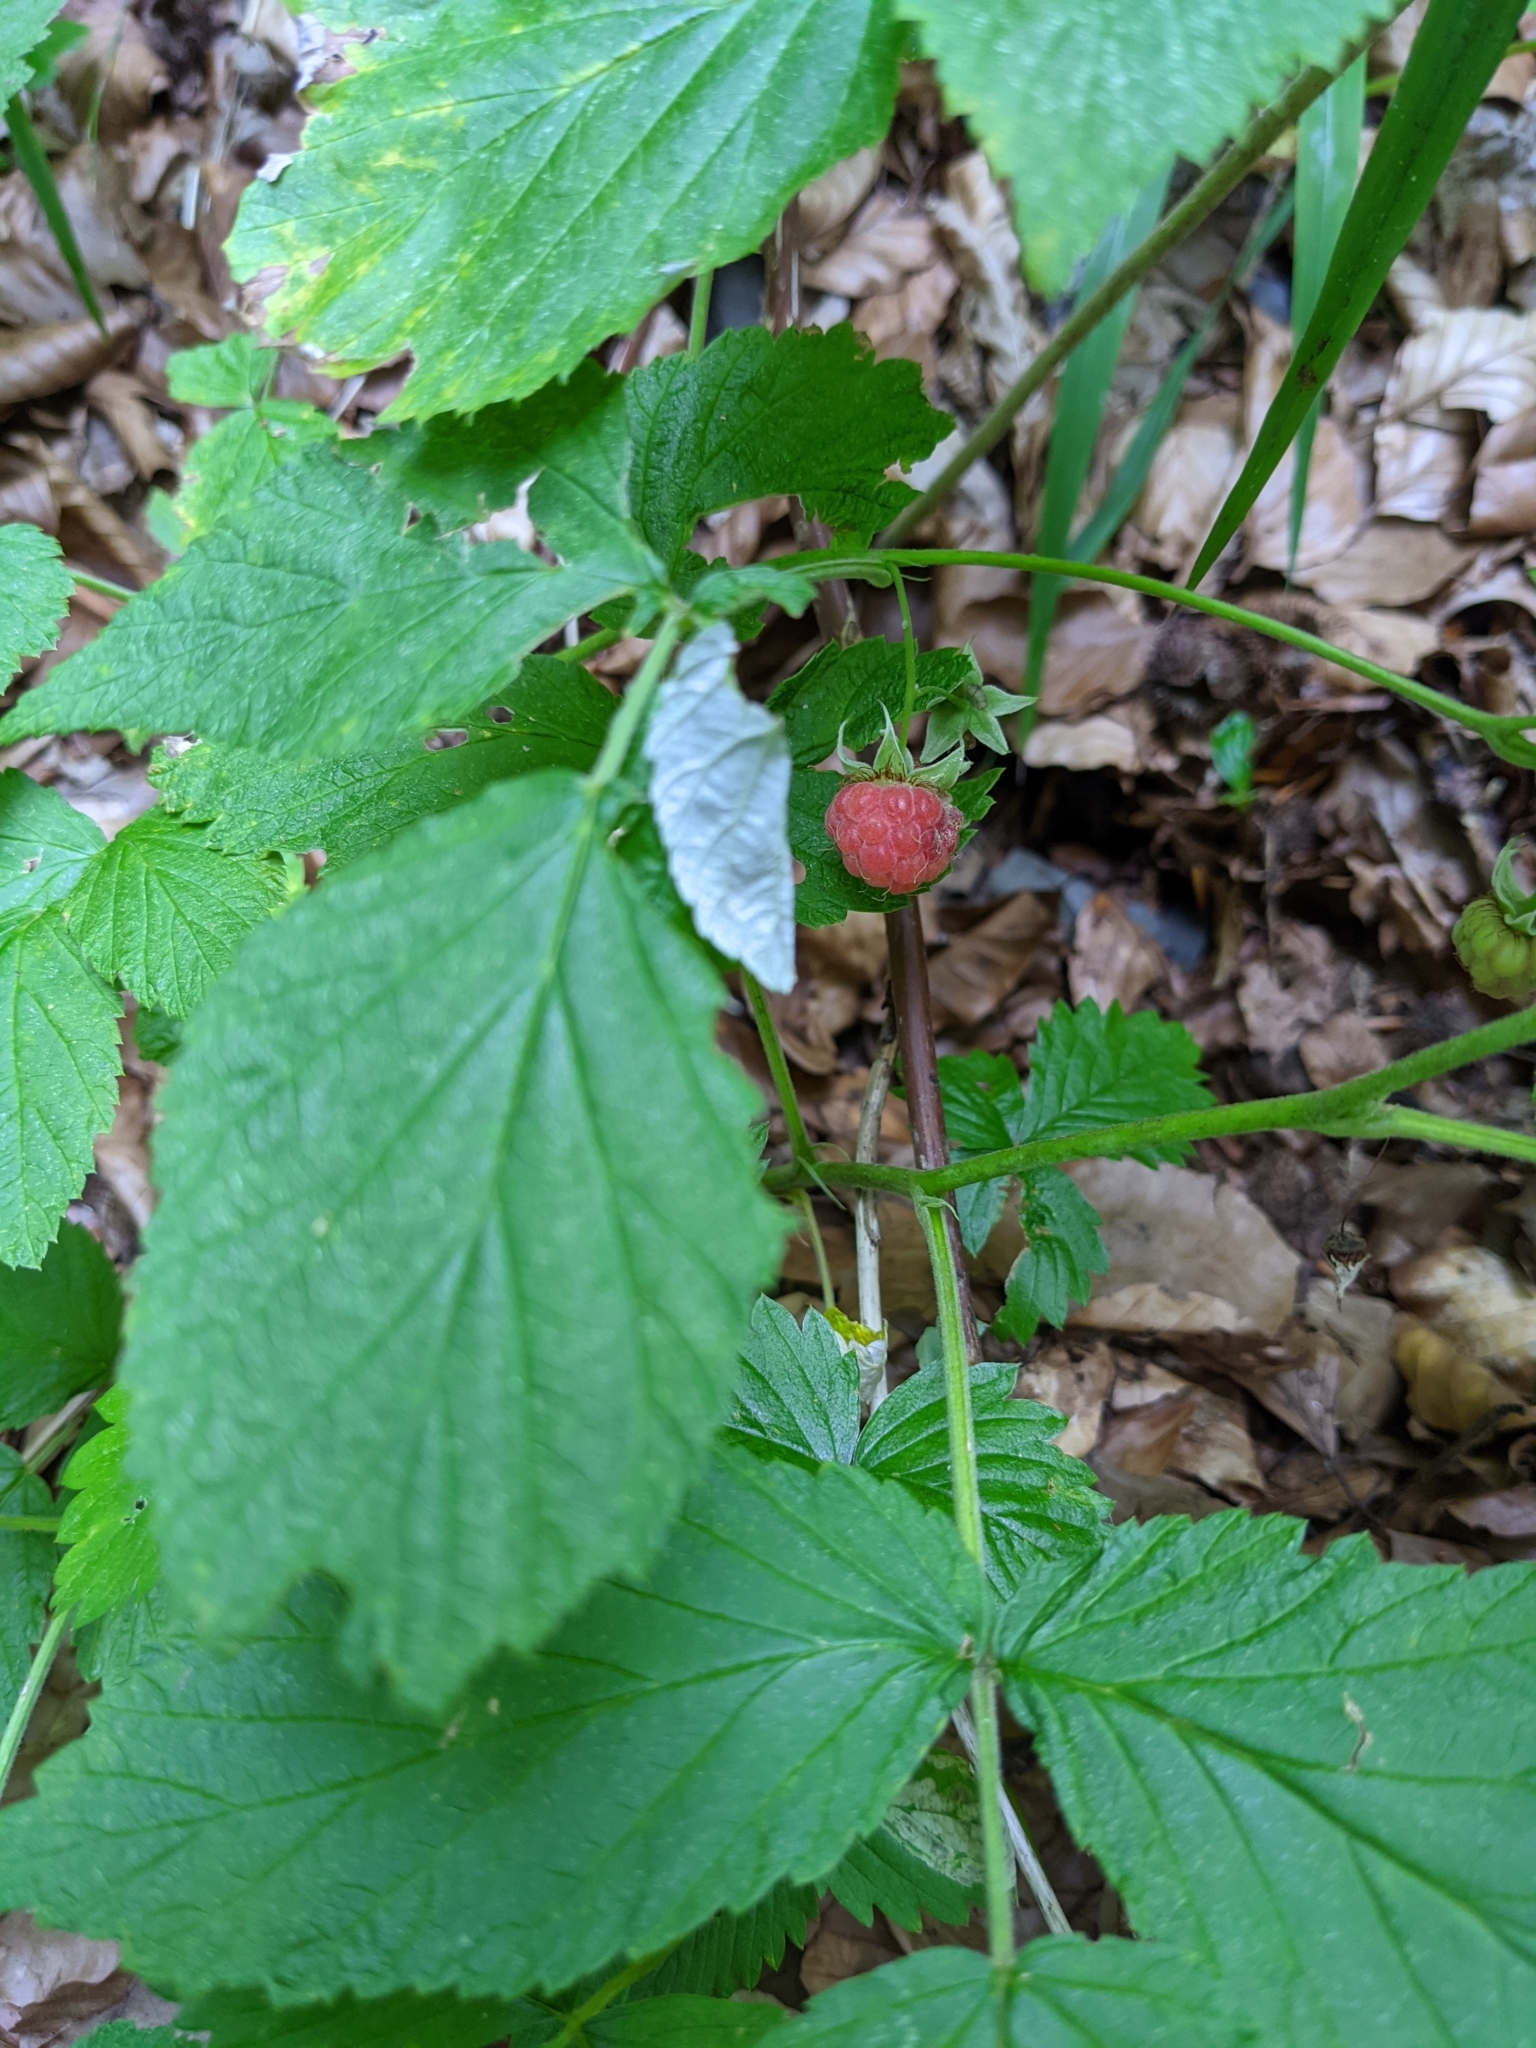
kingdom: Plantae
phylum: Tracheophyta
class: Magnoliopsida
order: Rosales
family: Rosaceae
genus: Rubus
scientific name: Rubus idaeus
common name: Raspberry
